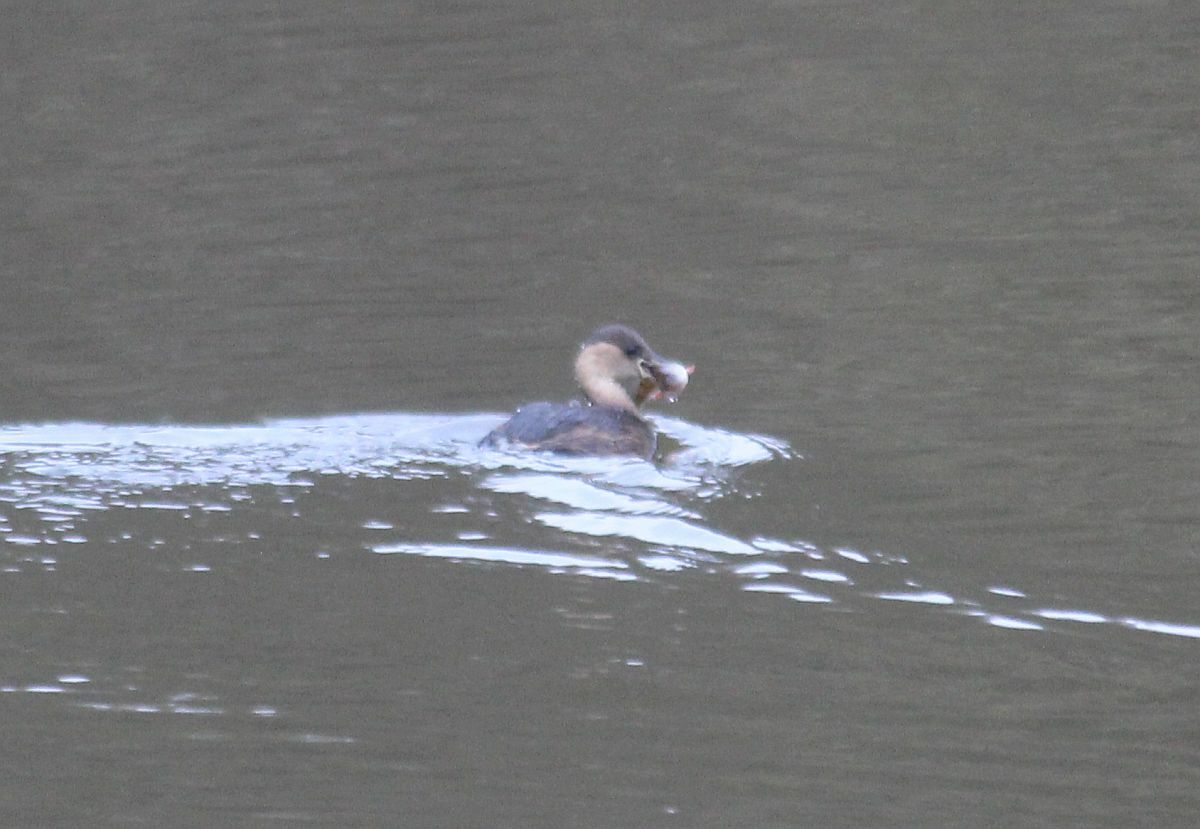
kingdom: Animalia
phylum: Chordata
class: Aves
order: Podicipediformes
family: Podicipedidae
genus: Tachybaptus
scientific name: Tachybaptus ruficollis
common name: Little grebe
